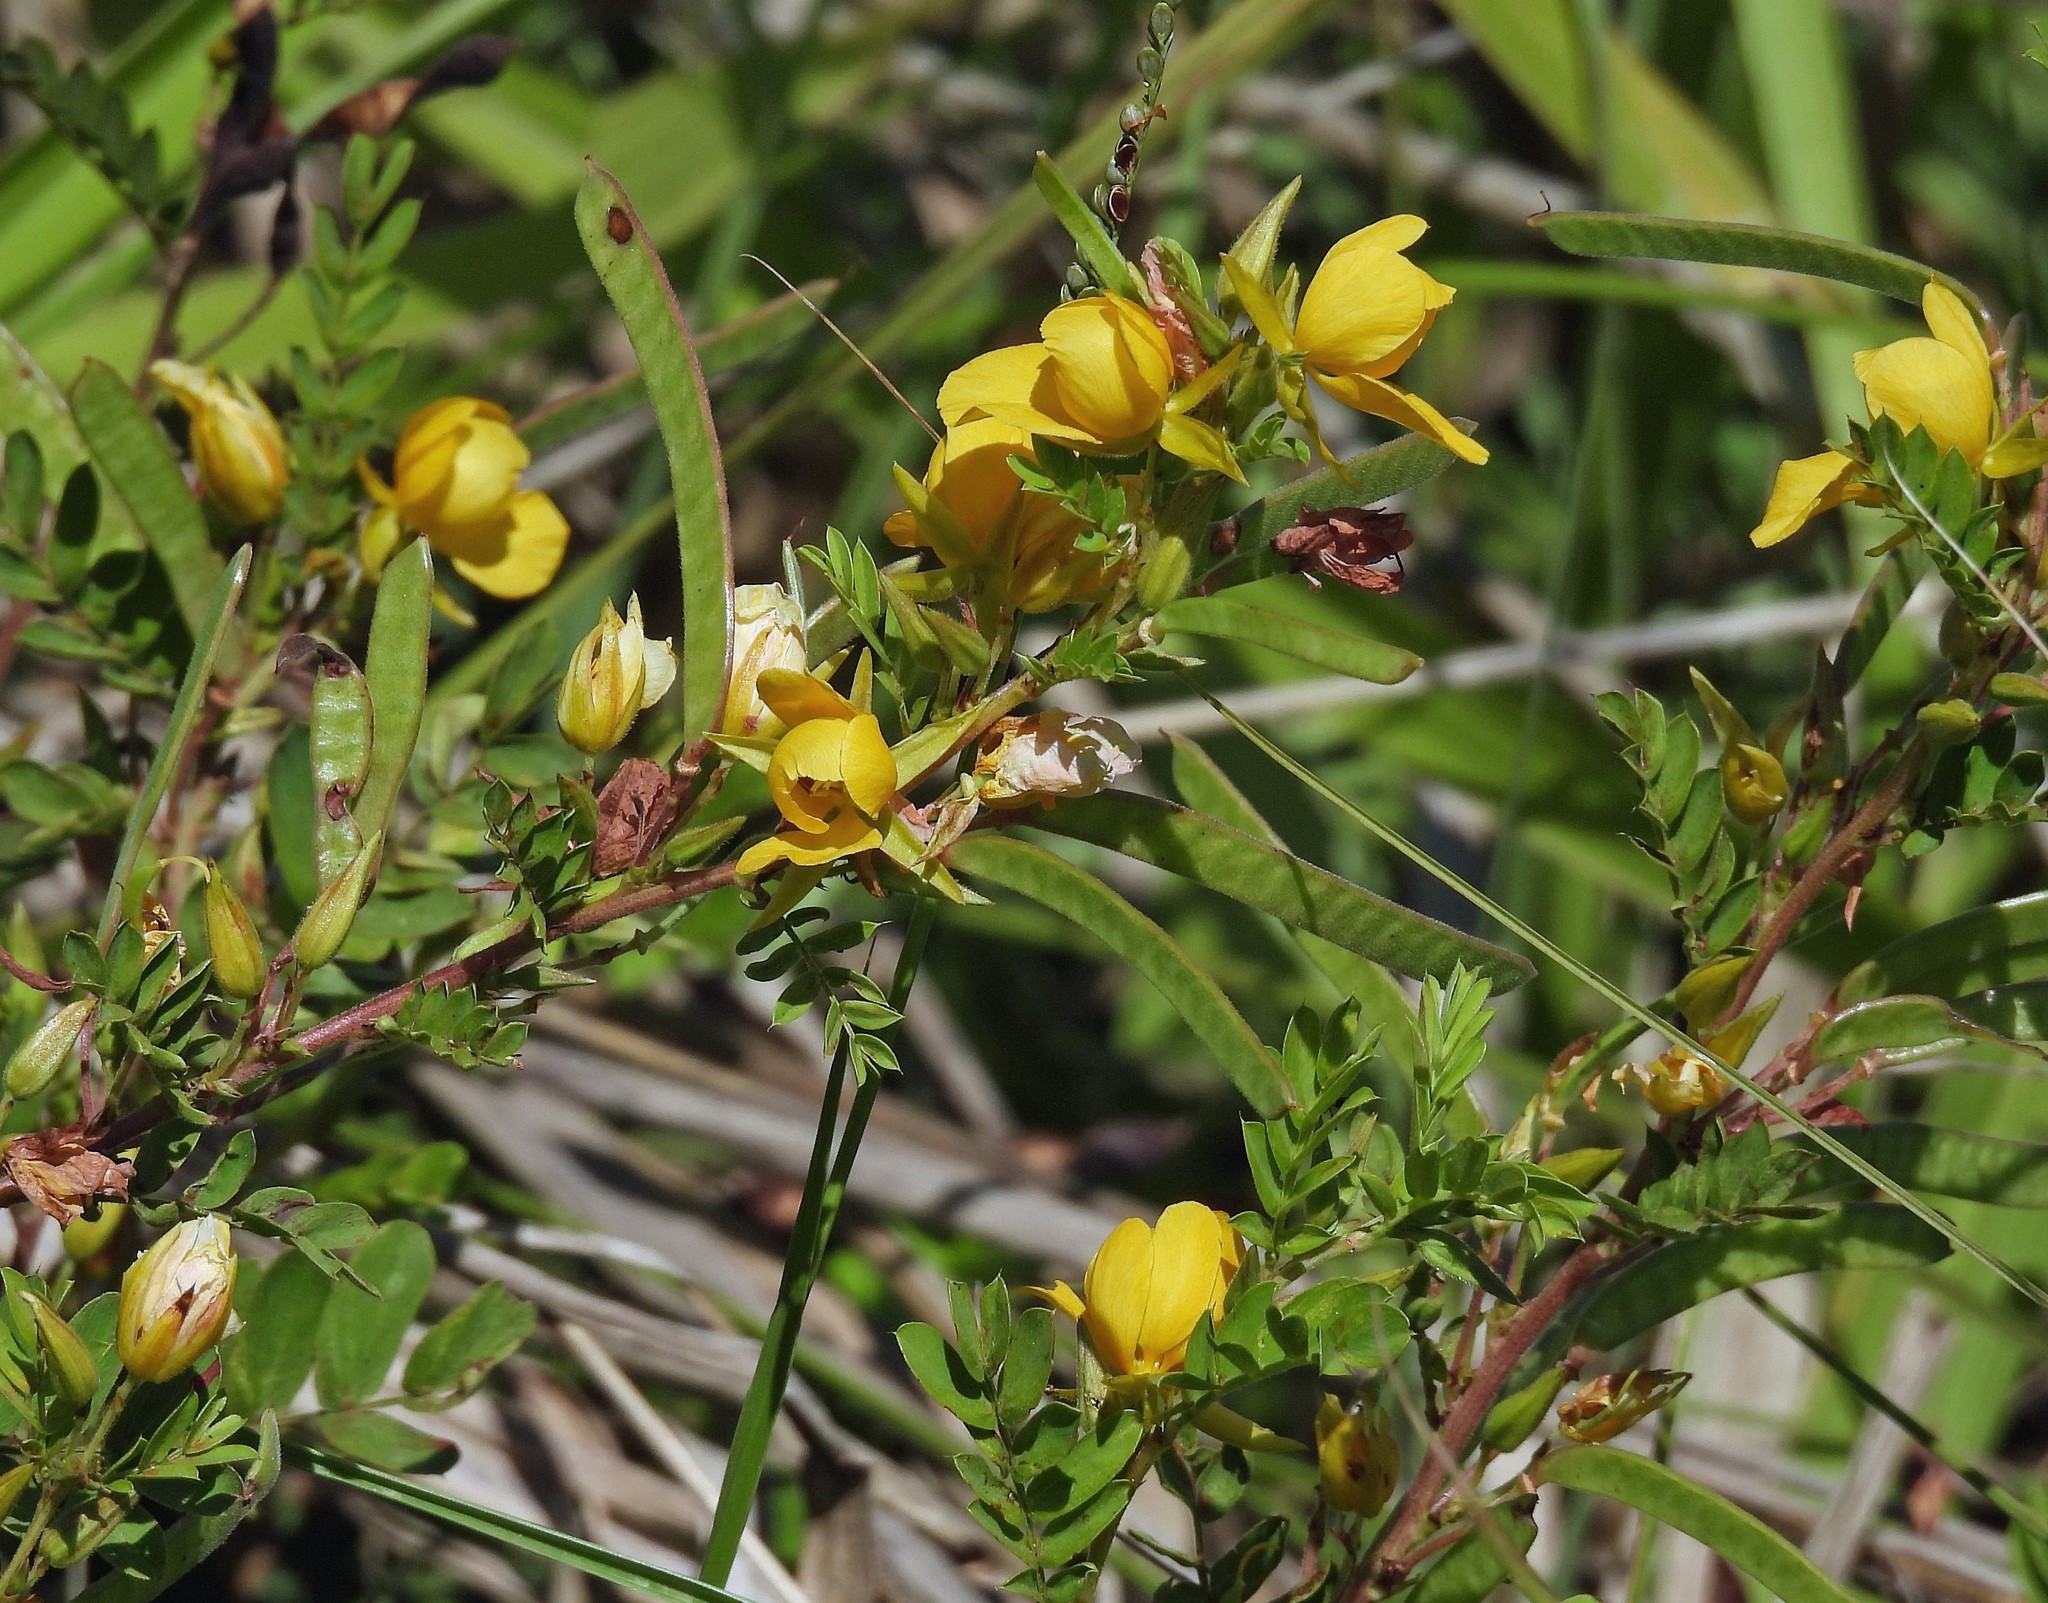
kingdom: Plantae
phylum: Tracheophyta
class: Magnoliopsida
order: Fabales
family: Fabaceae
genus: Chamaecrista
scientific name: Chamaecrista repens
